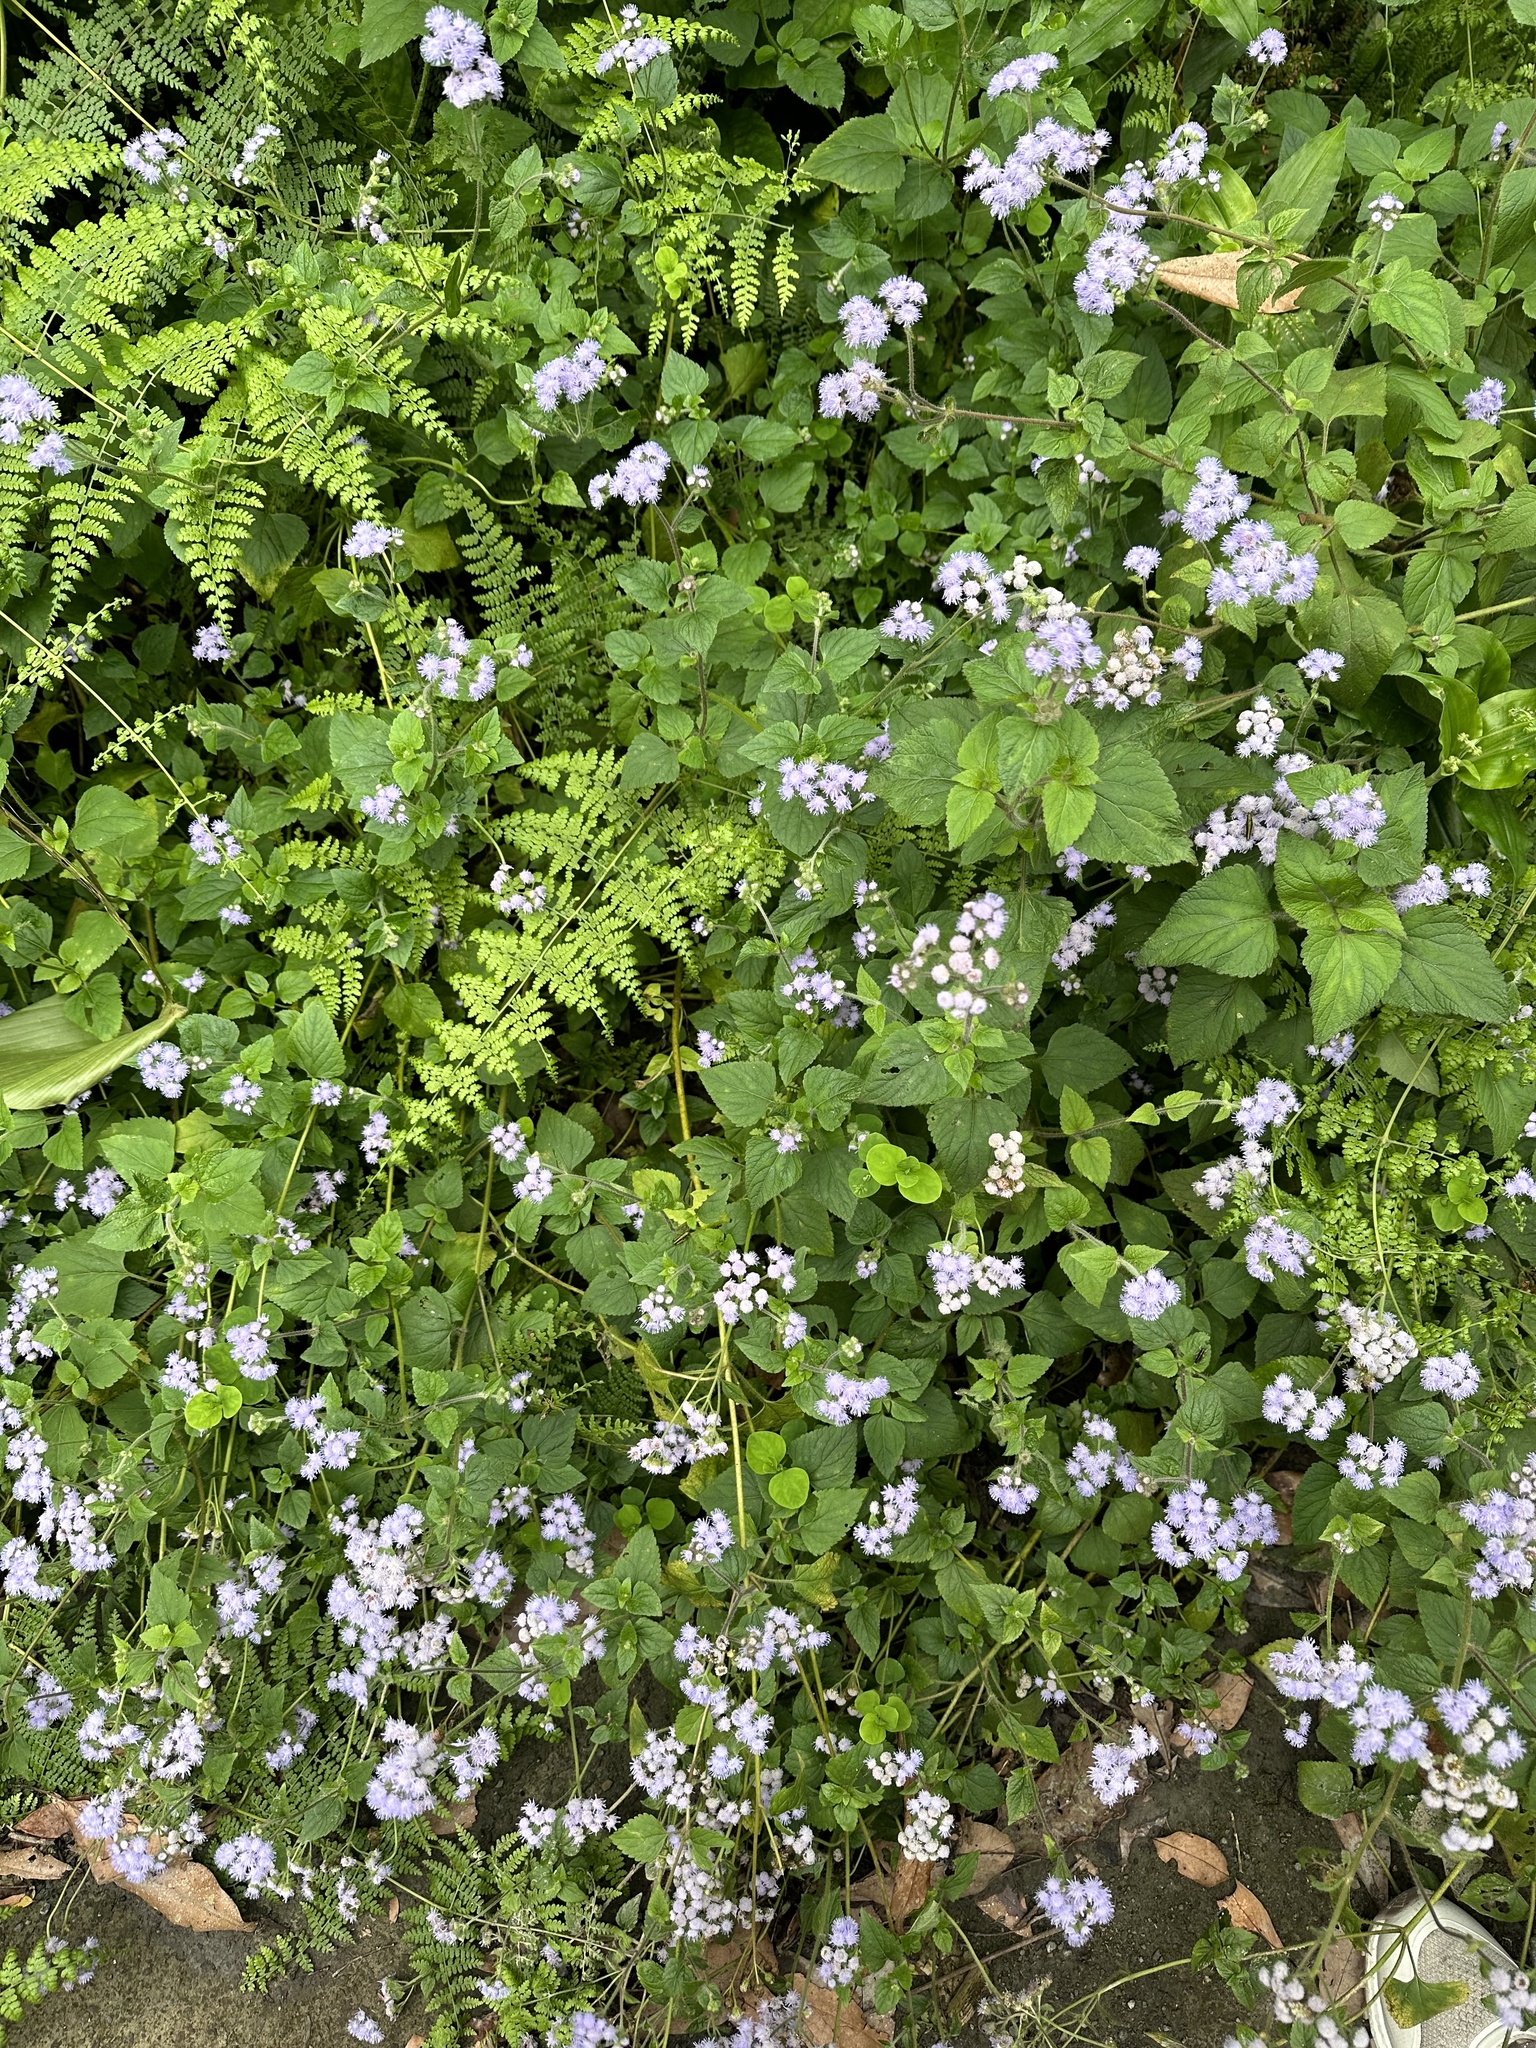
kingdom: Plantae
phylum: Tracheophyta
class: Magnoliopsida
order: Asterales
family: Asteraceae
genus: Ageratum
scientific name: Ageratum houstonianum
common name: Bluemink
